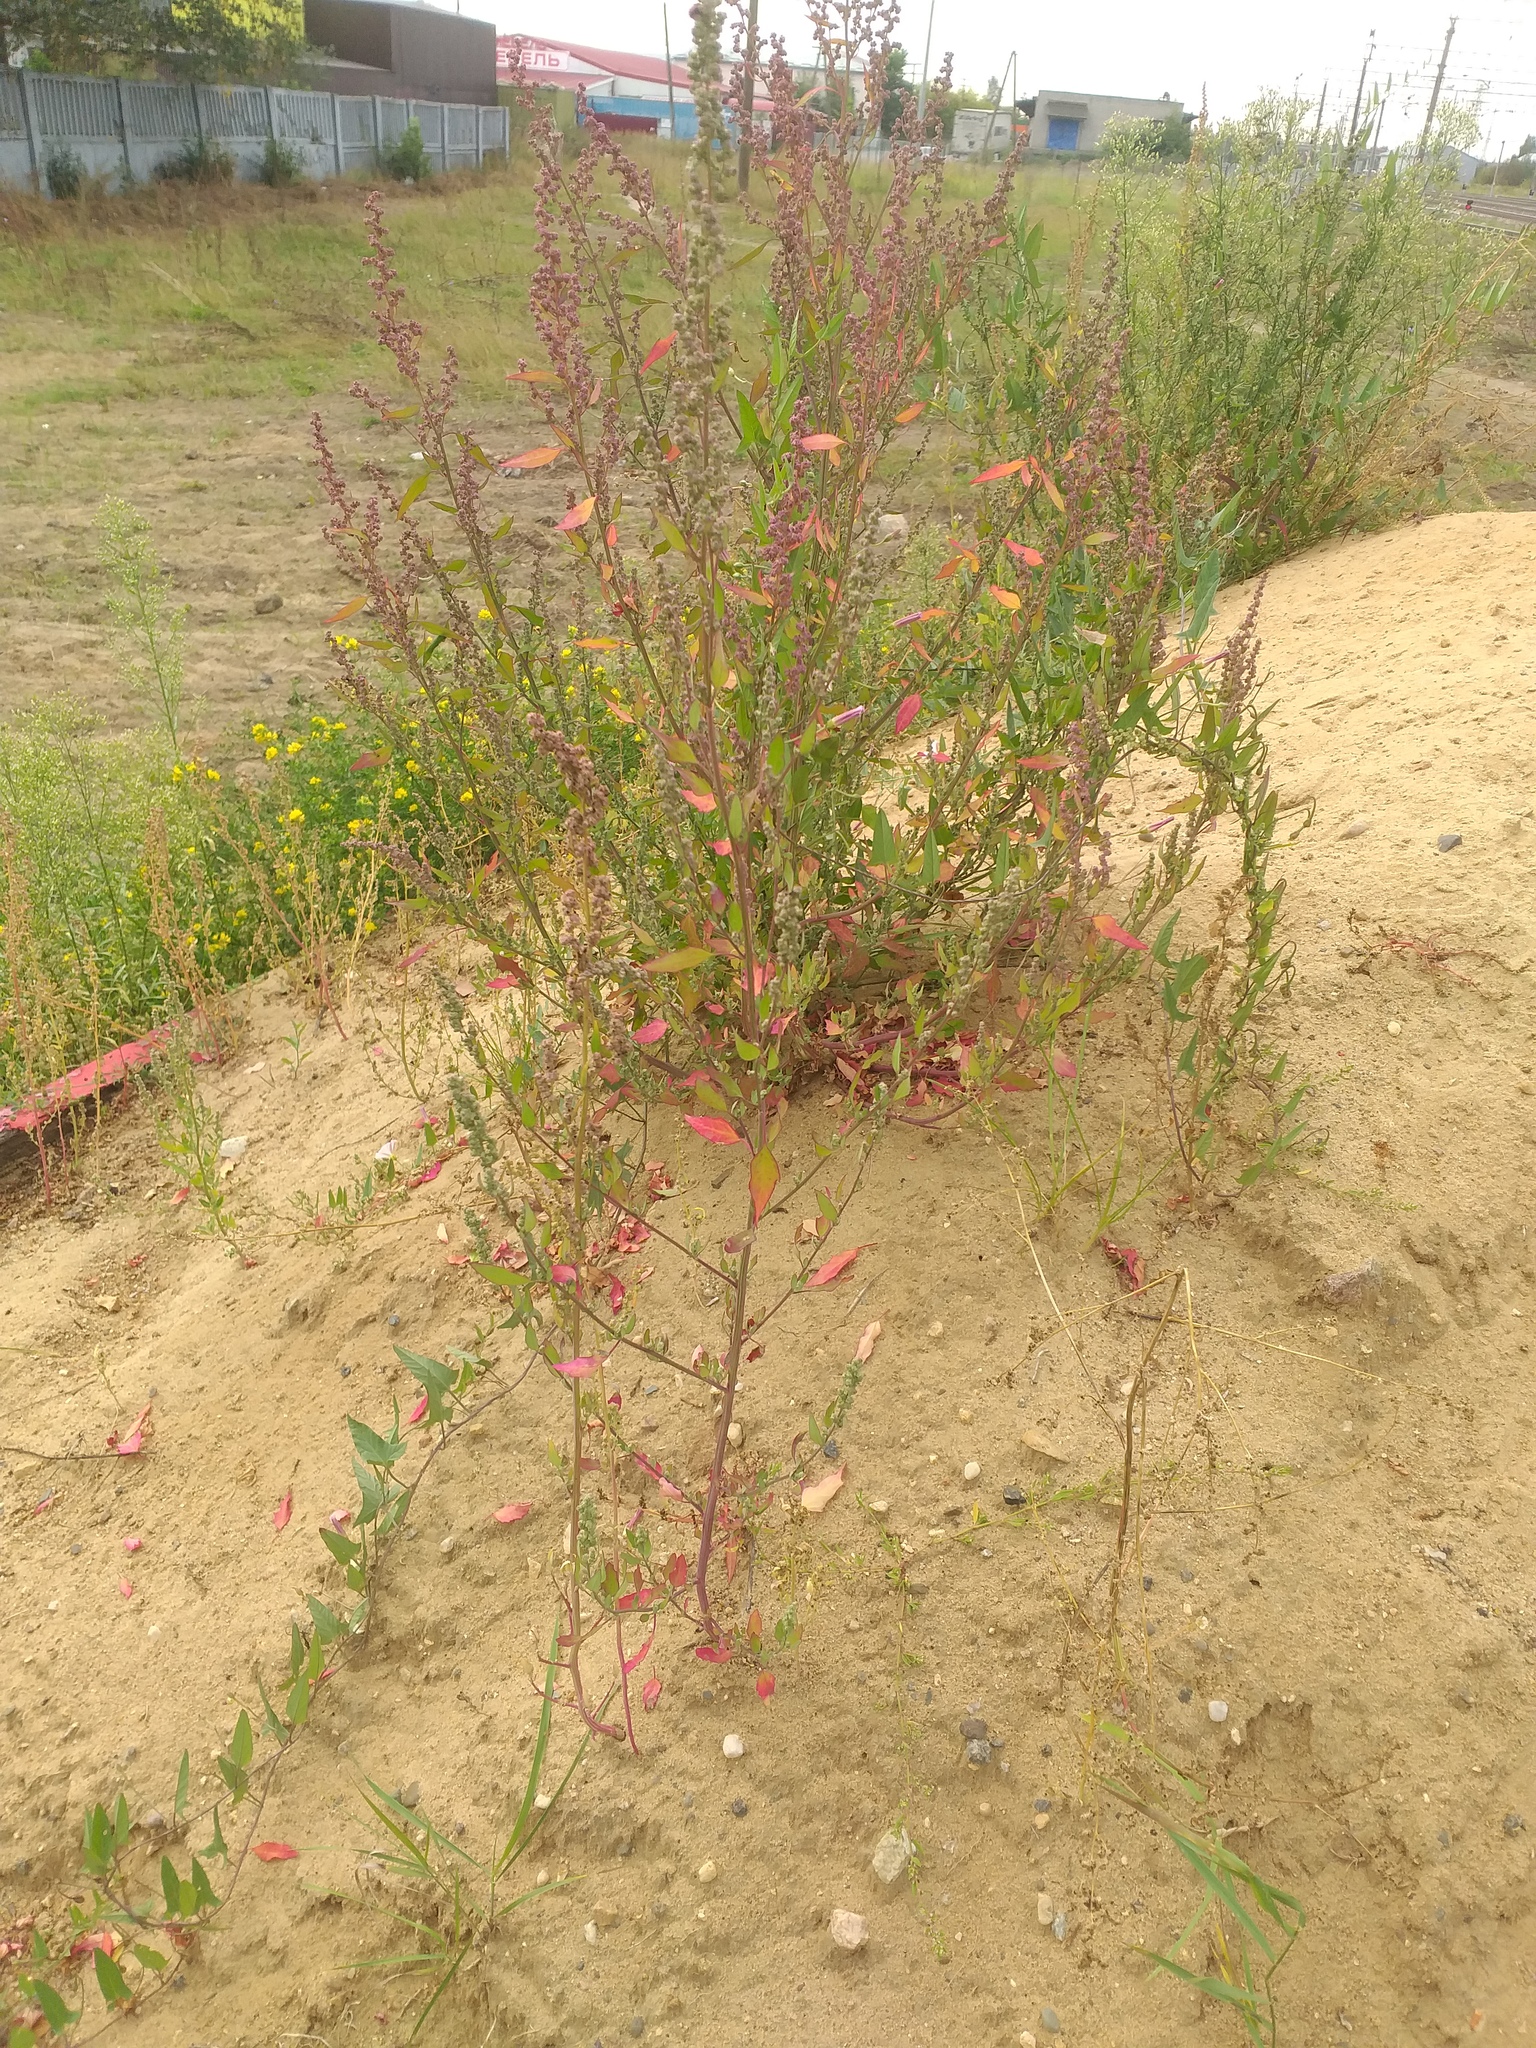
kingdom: Plantae
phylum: Tracheophyta
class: Magnoliopsida
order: Caryophyllales
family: Amaranthaceae
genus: Chenopodium
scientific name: Chenopodium album
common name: Fat-hen
